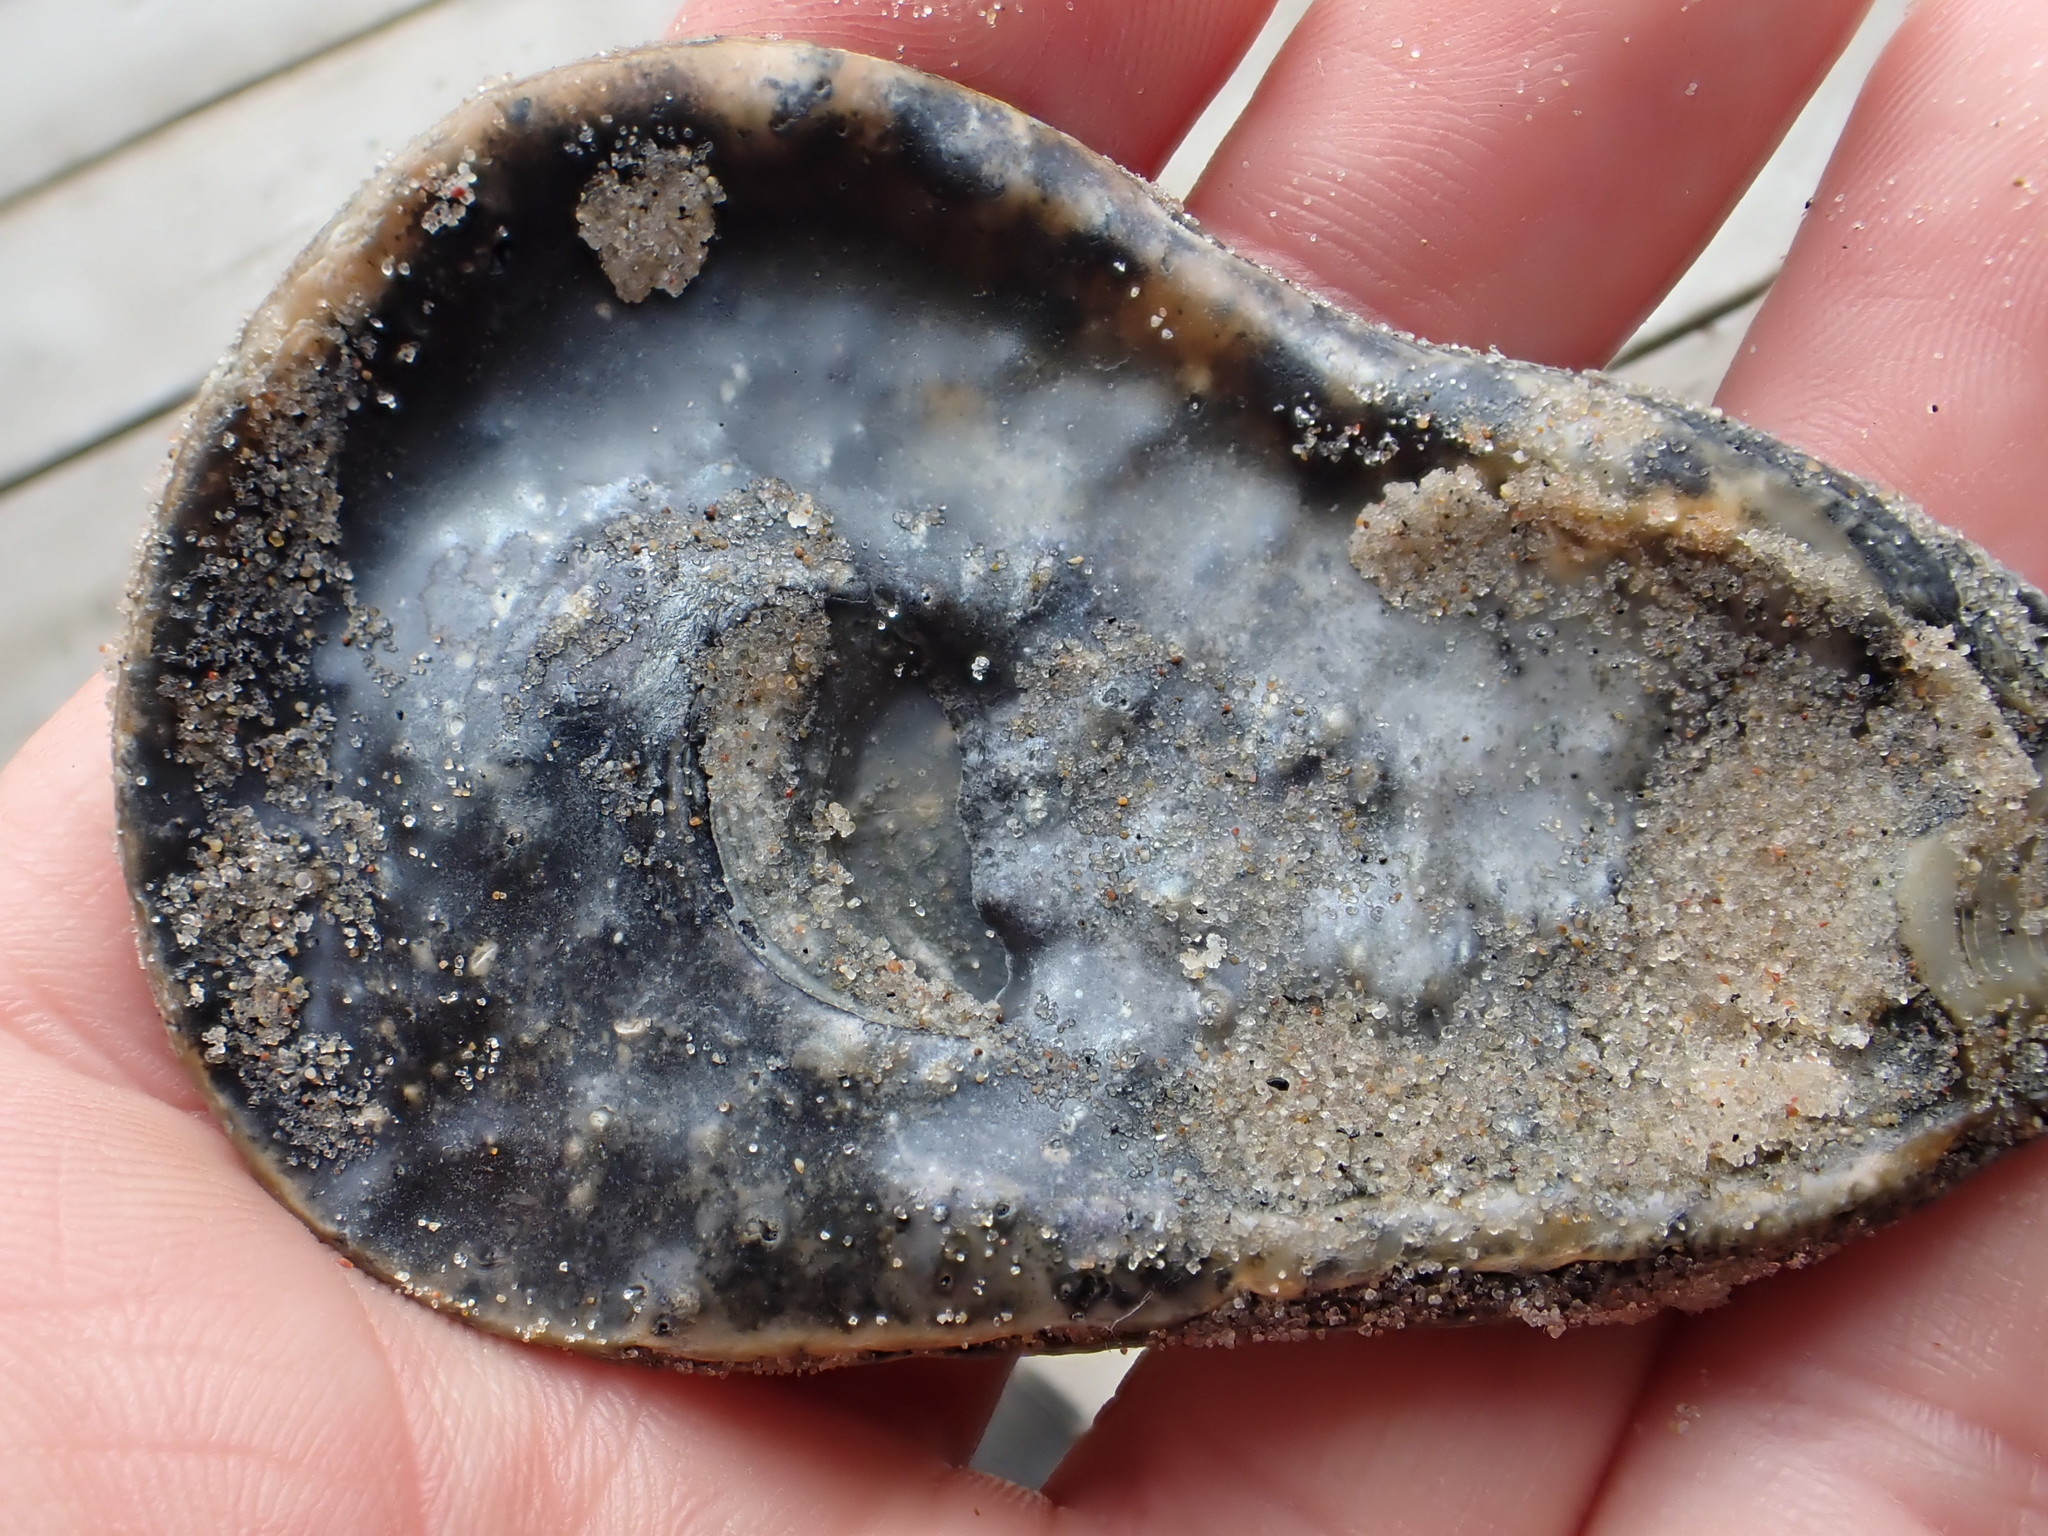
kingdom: Animalia
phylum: Mollusca
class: Bivalvia
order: Ostreida
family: Ostreidae
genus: Ostrea
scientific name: Ostrea edulis
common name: Flat oyster
